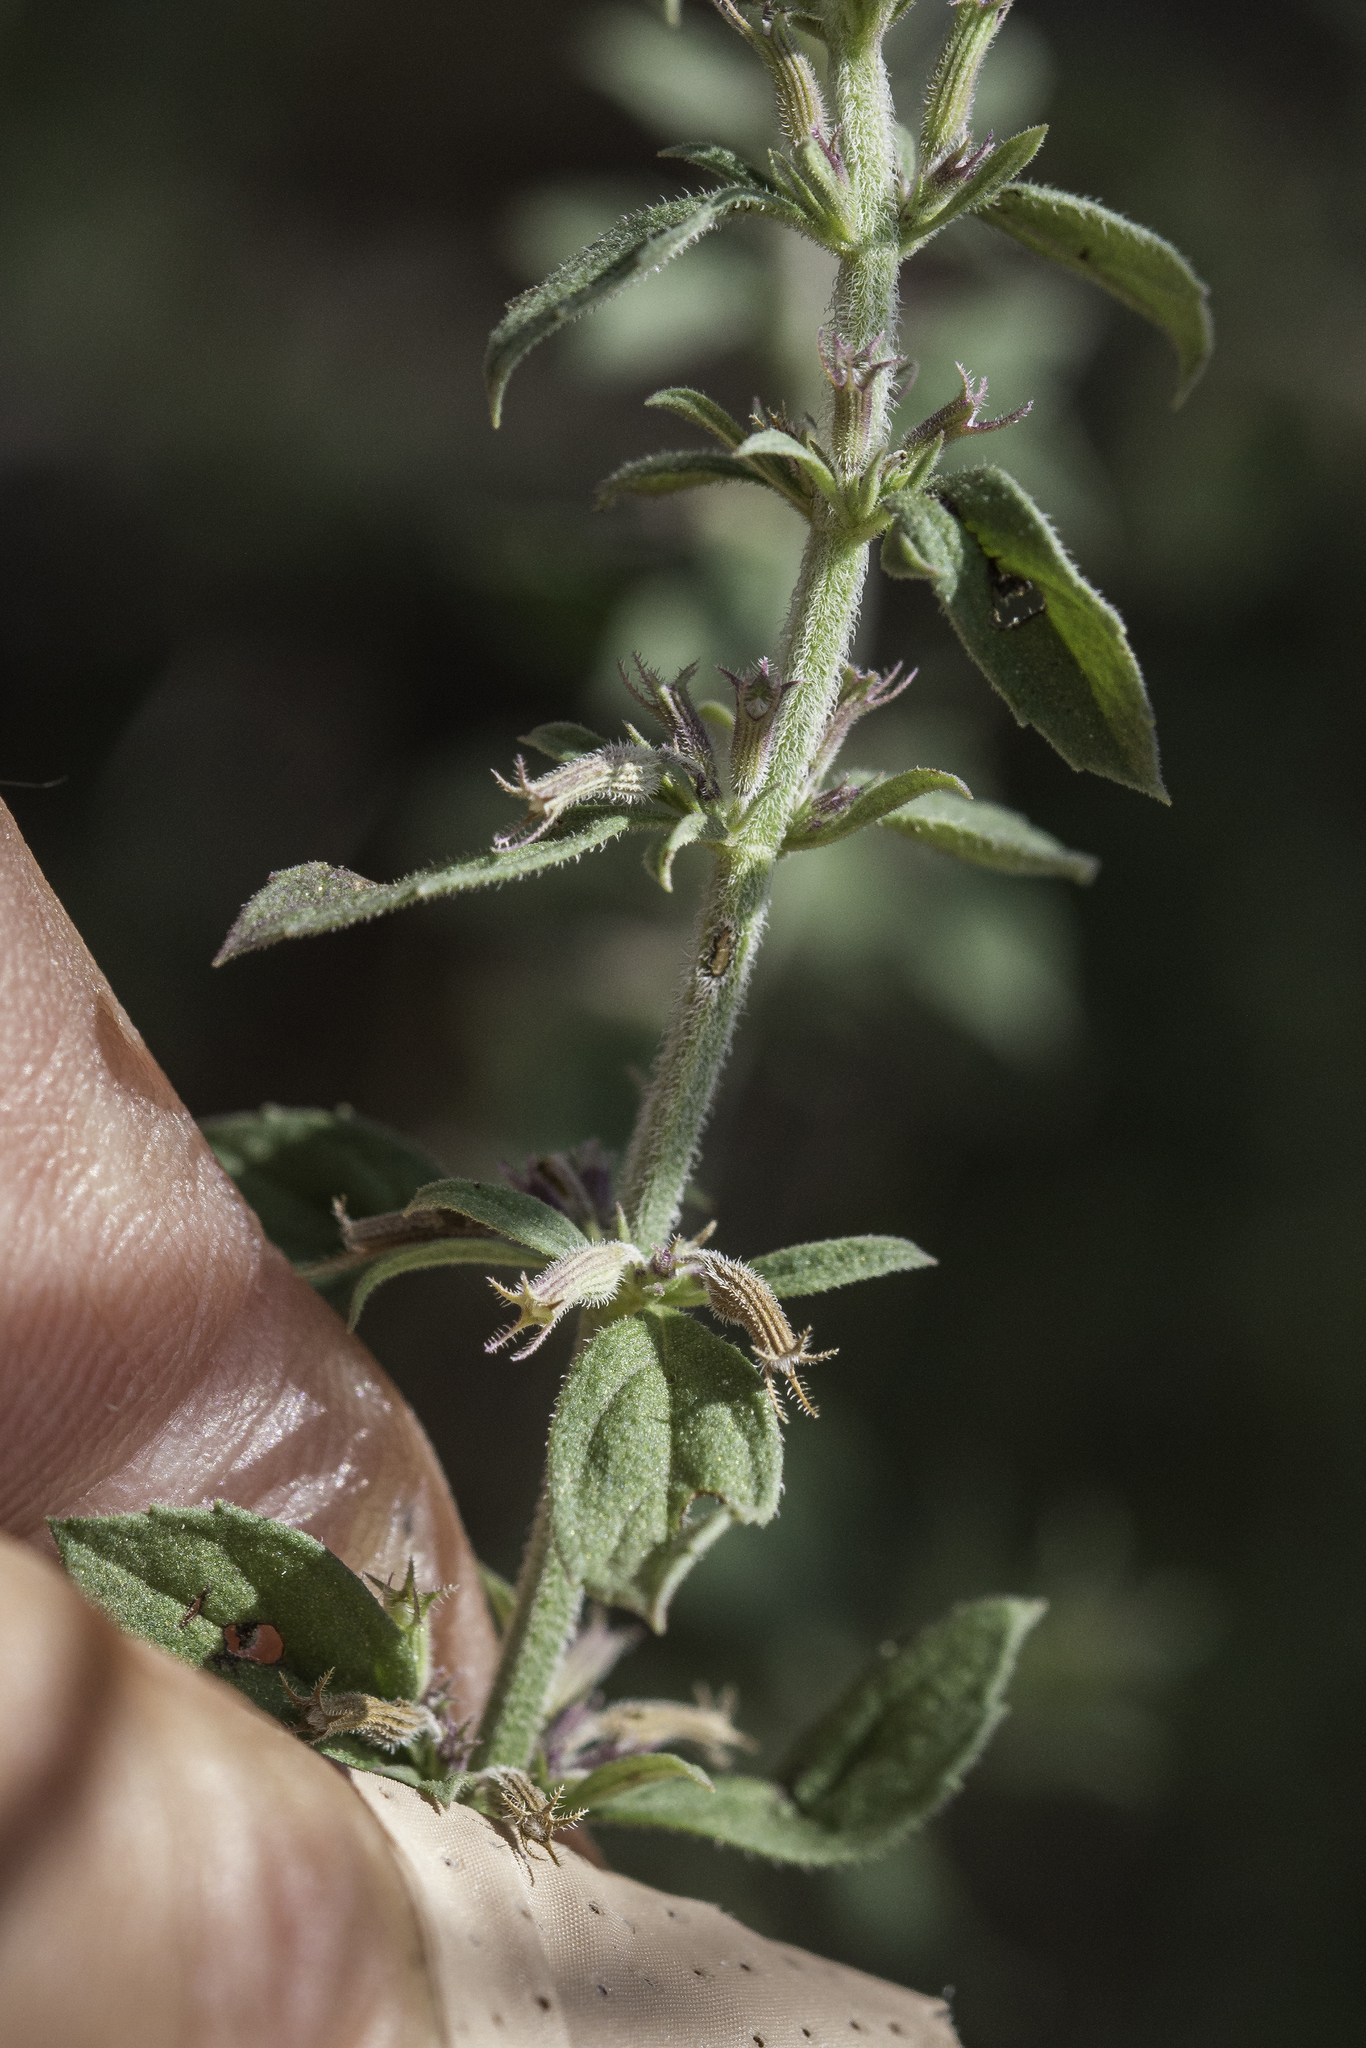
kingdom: Plantae
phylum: Tracheophyta
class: Magnoliopsida
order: Lamiales
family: Lamiaceae
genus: Hedeoma
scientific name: Hedeoma dentata
